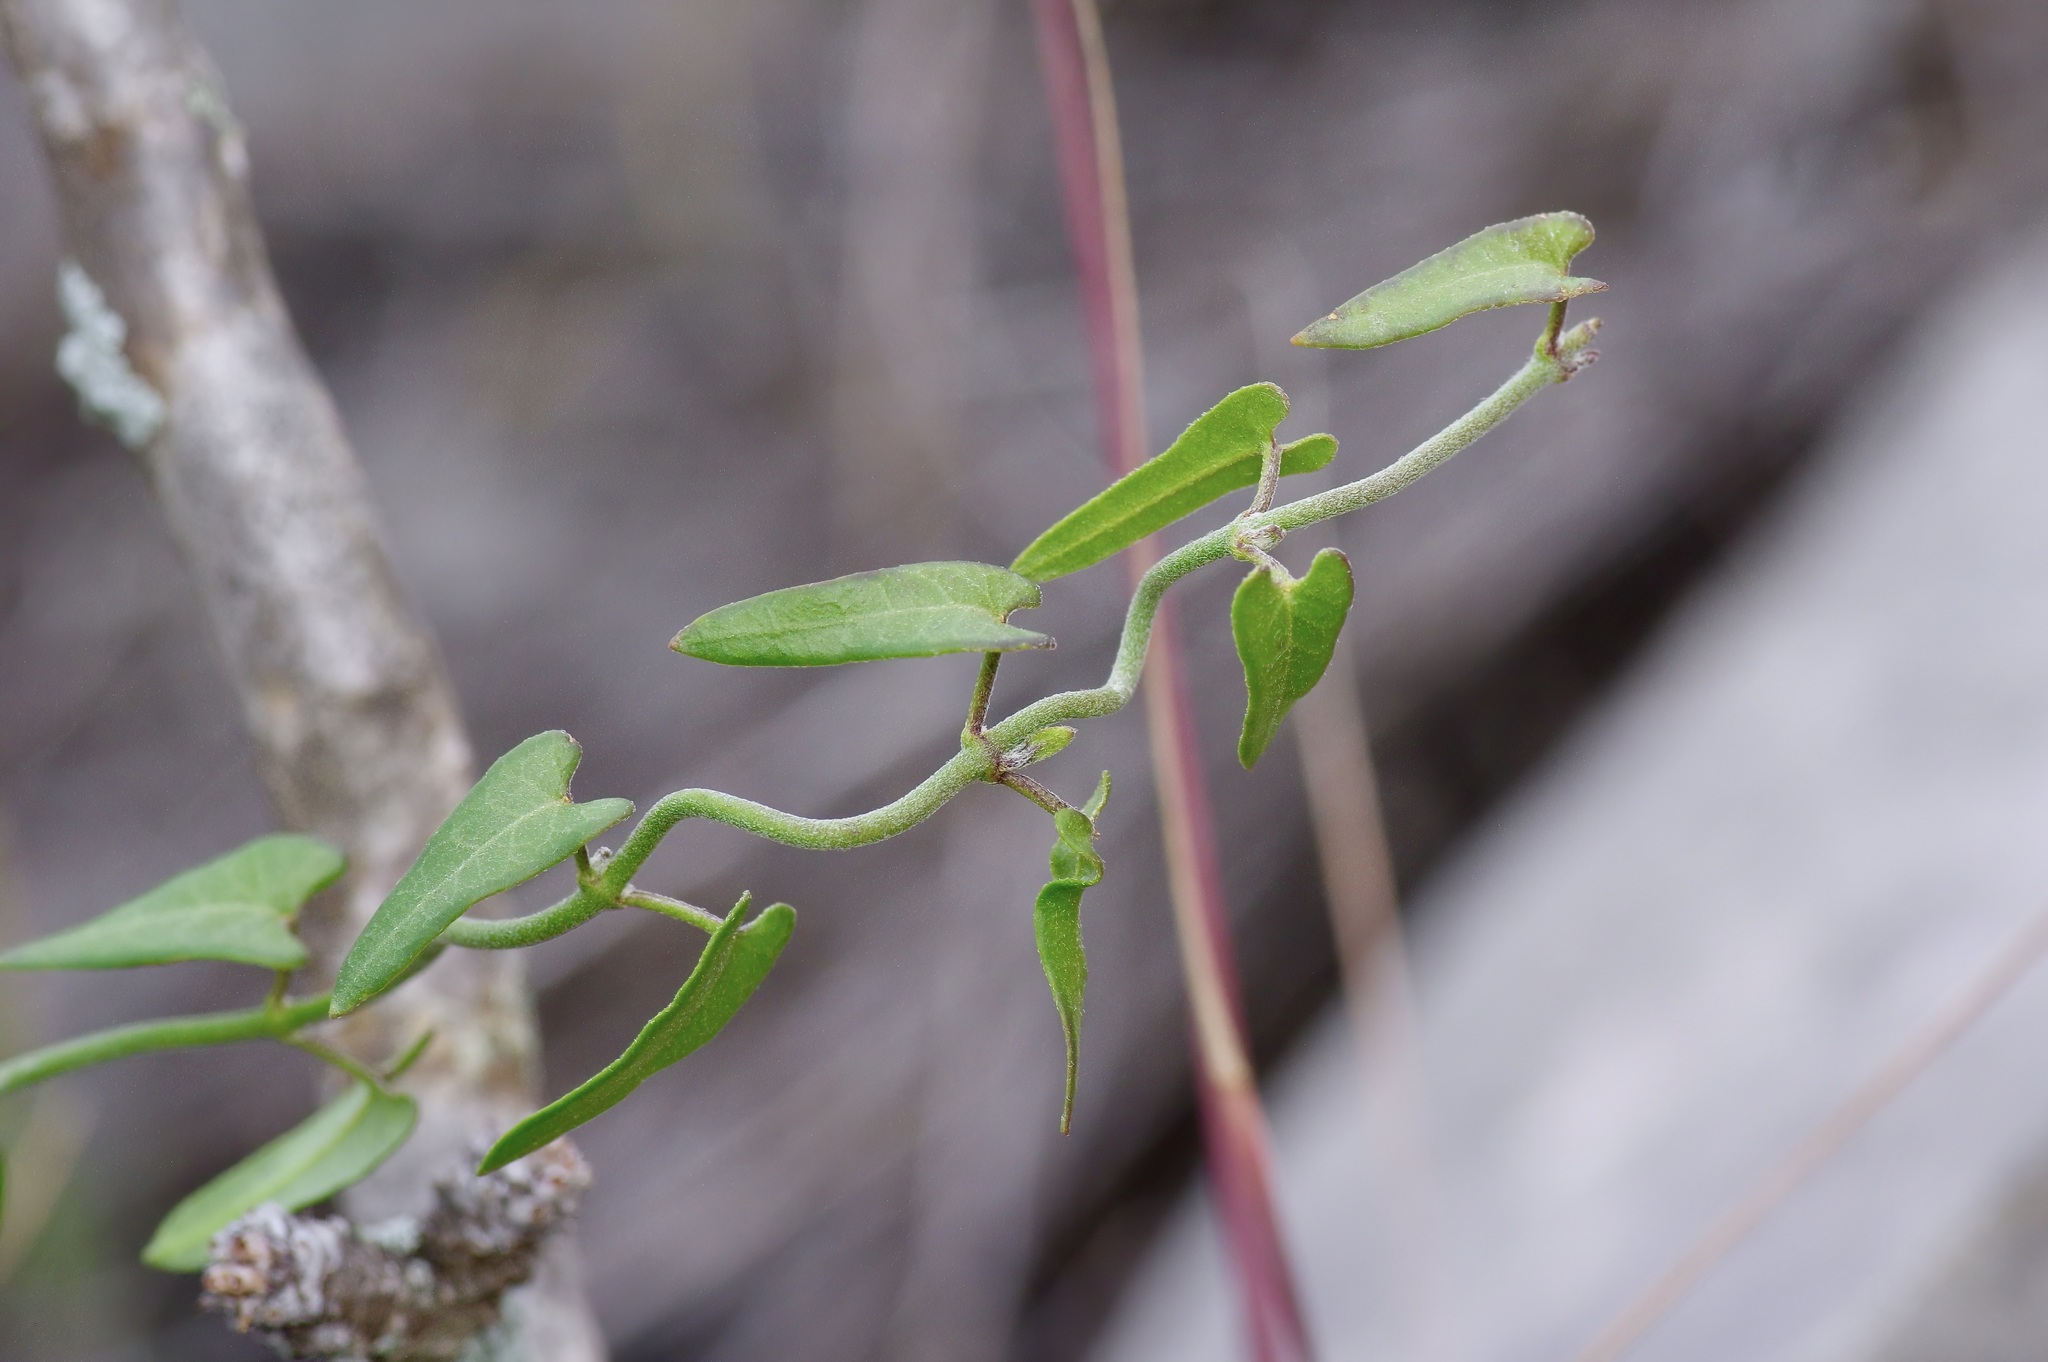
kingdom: Plantae
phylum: Tracheophyta
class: Magnoliopsida
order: Gentianales
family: Apocynaceae
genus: Matelea
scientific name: Matelea sagittifolia
